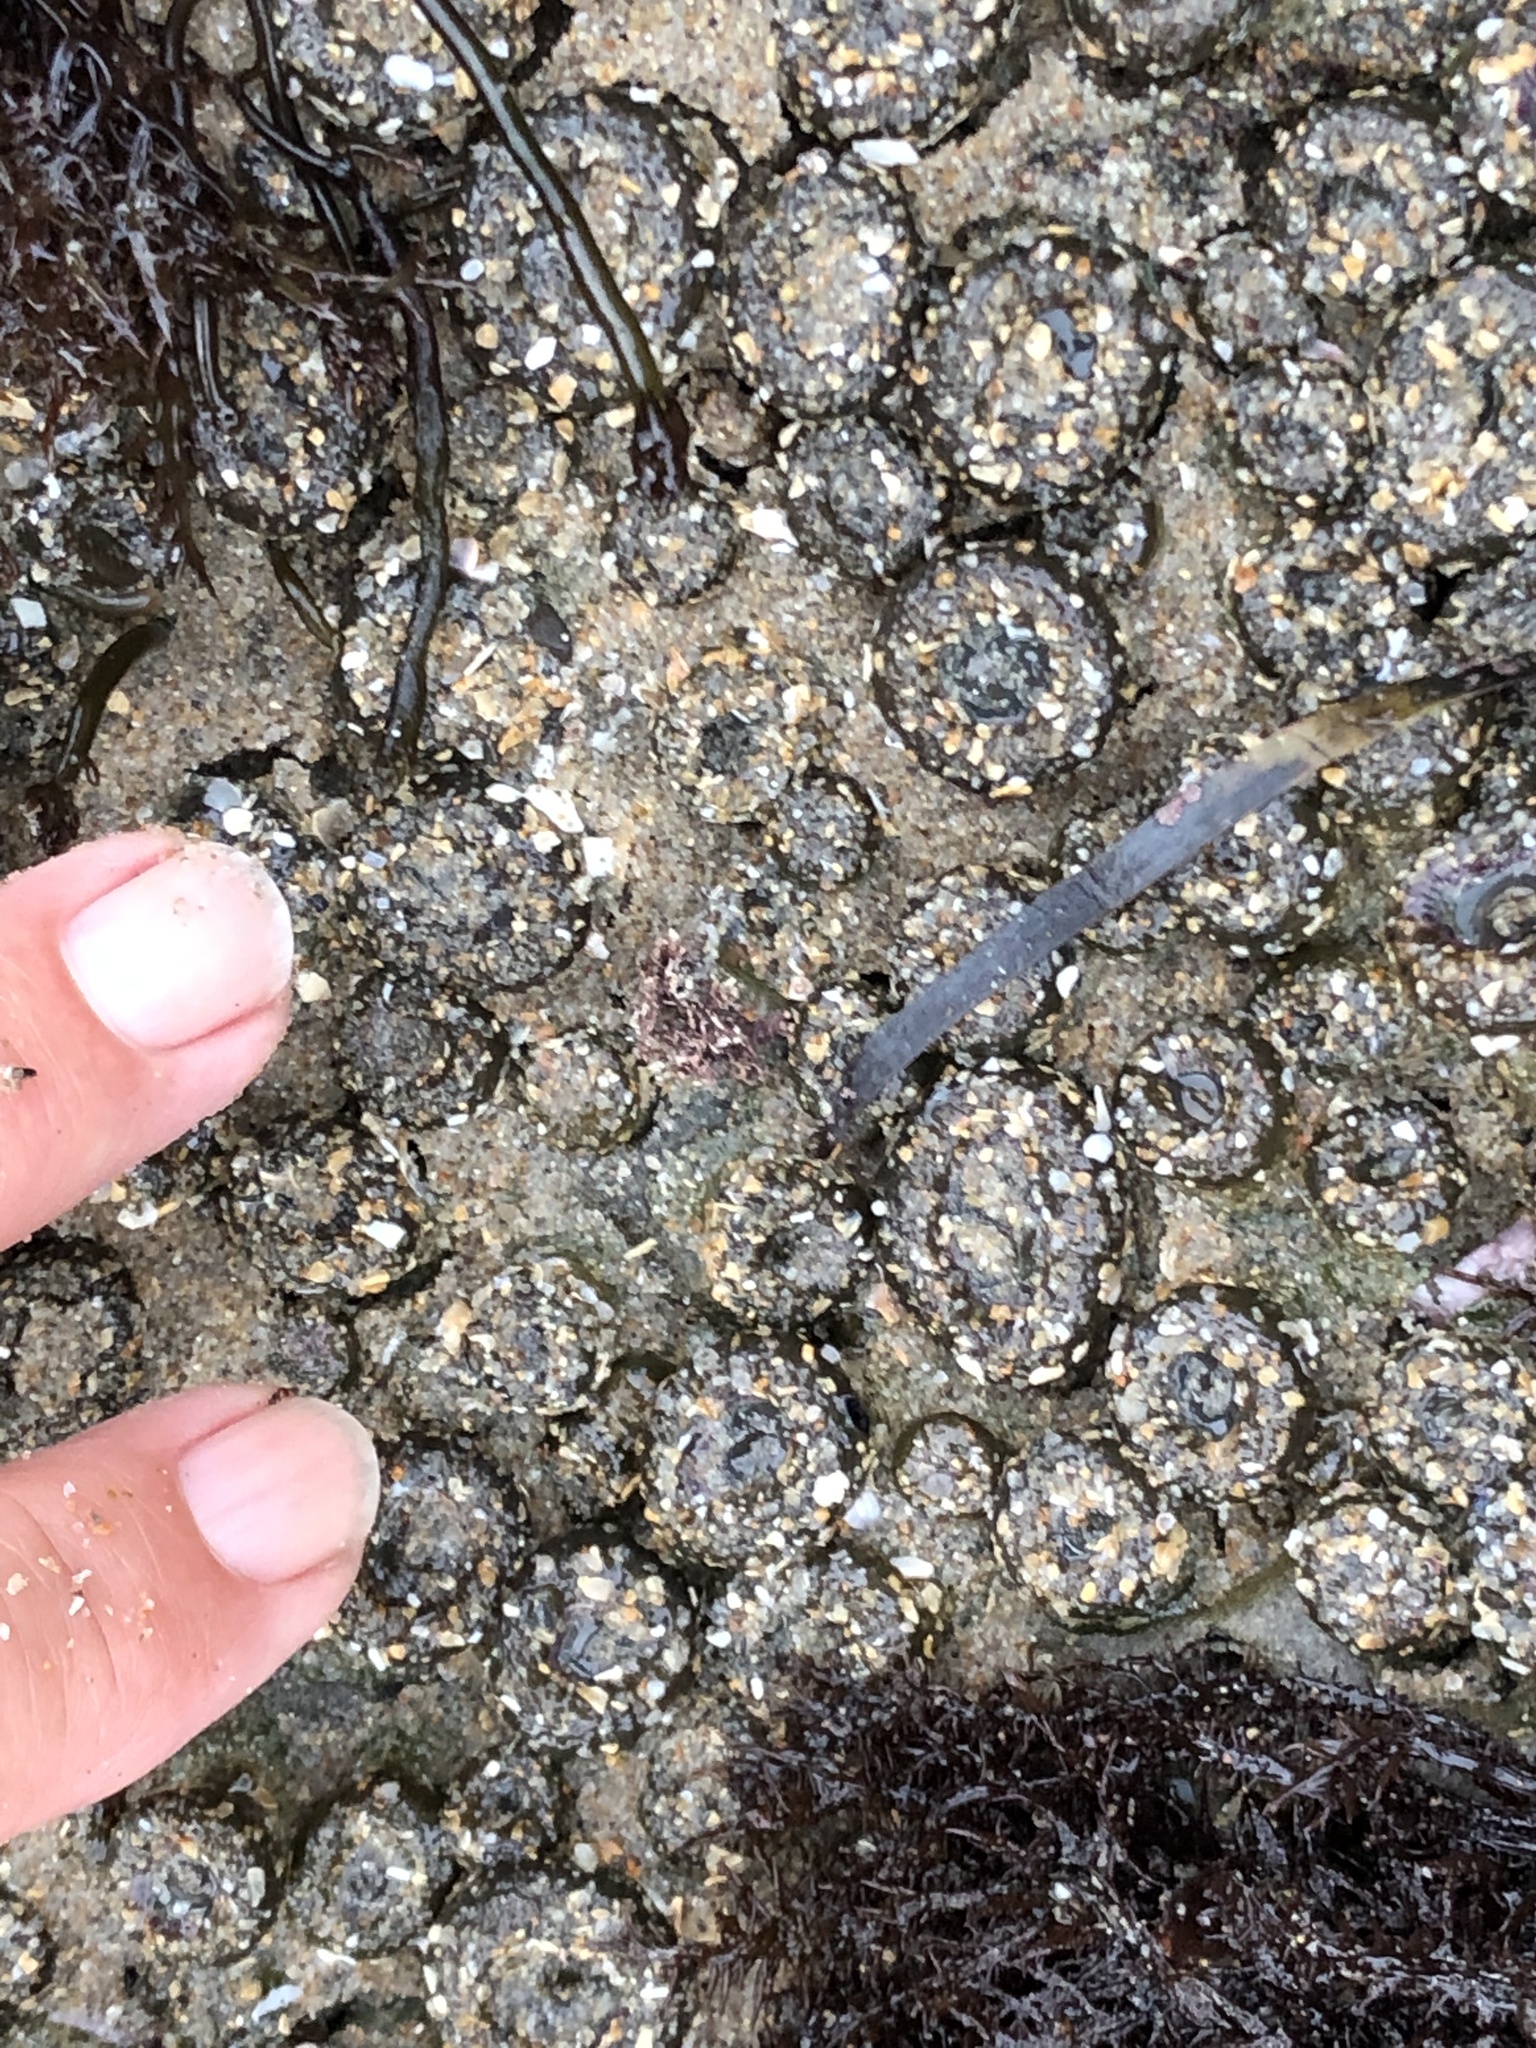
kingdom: Animalia
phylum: Cnidaria
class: Anthozoa
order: Actiniaria
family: Actiniidae
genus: Anthopleura
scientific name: Anthopleura elegantissima
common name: Clonal anemone
